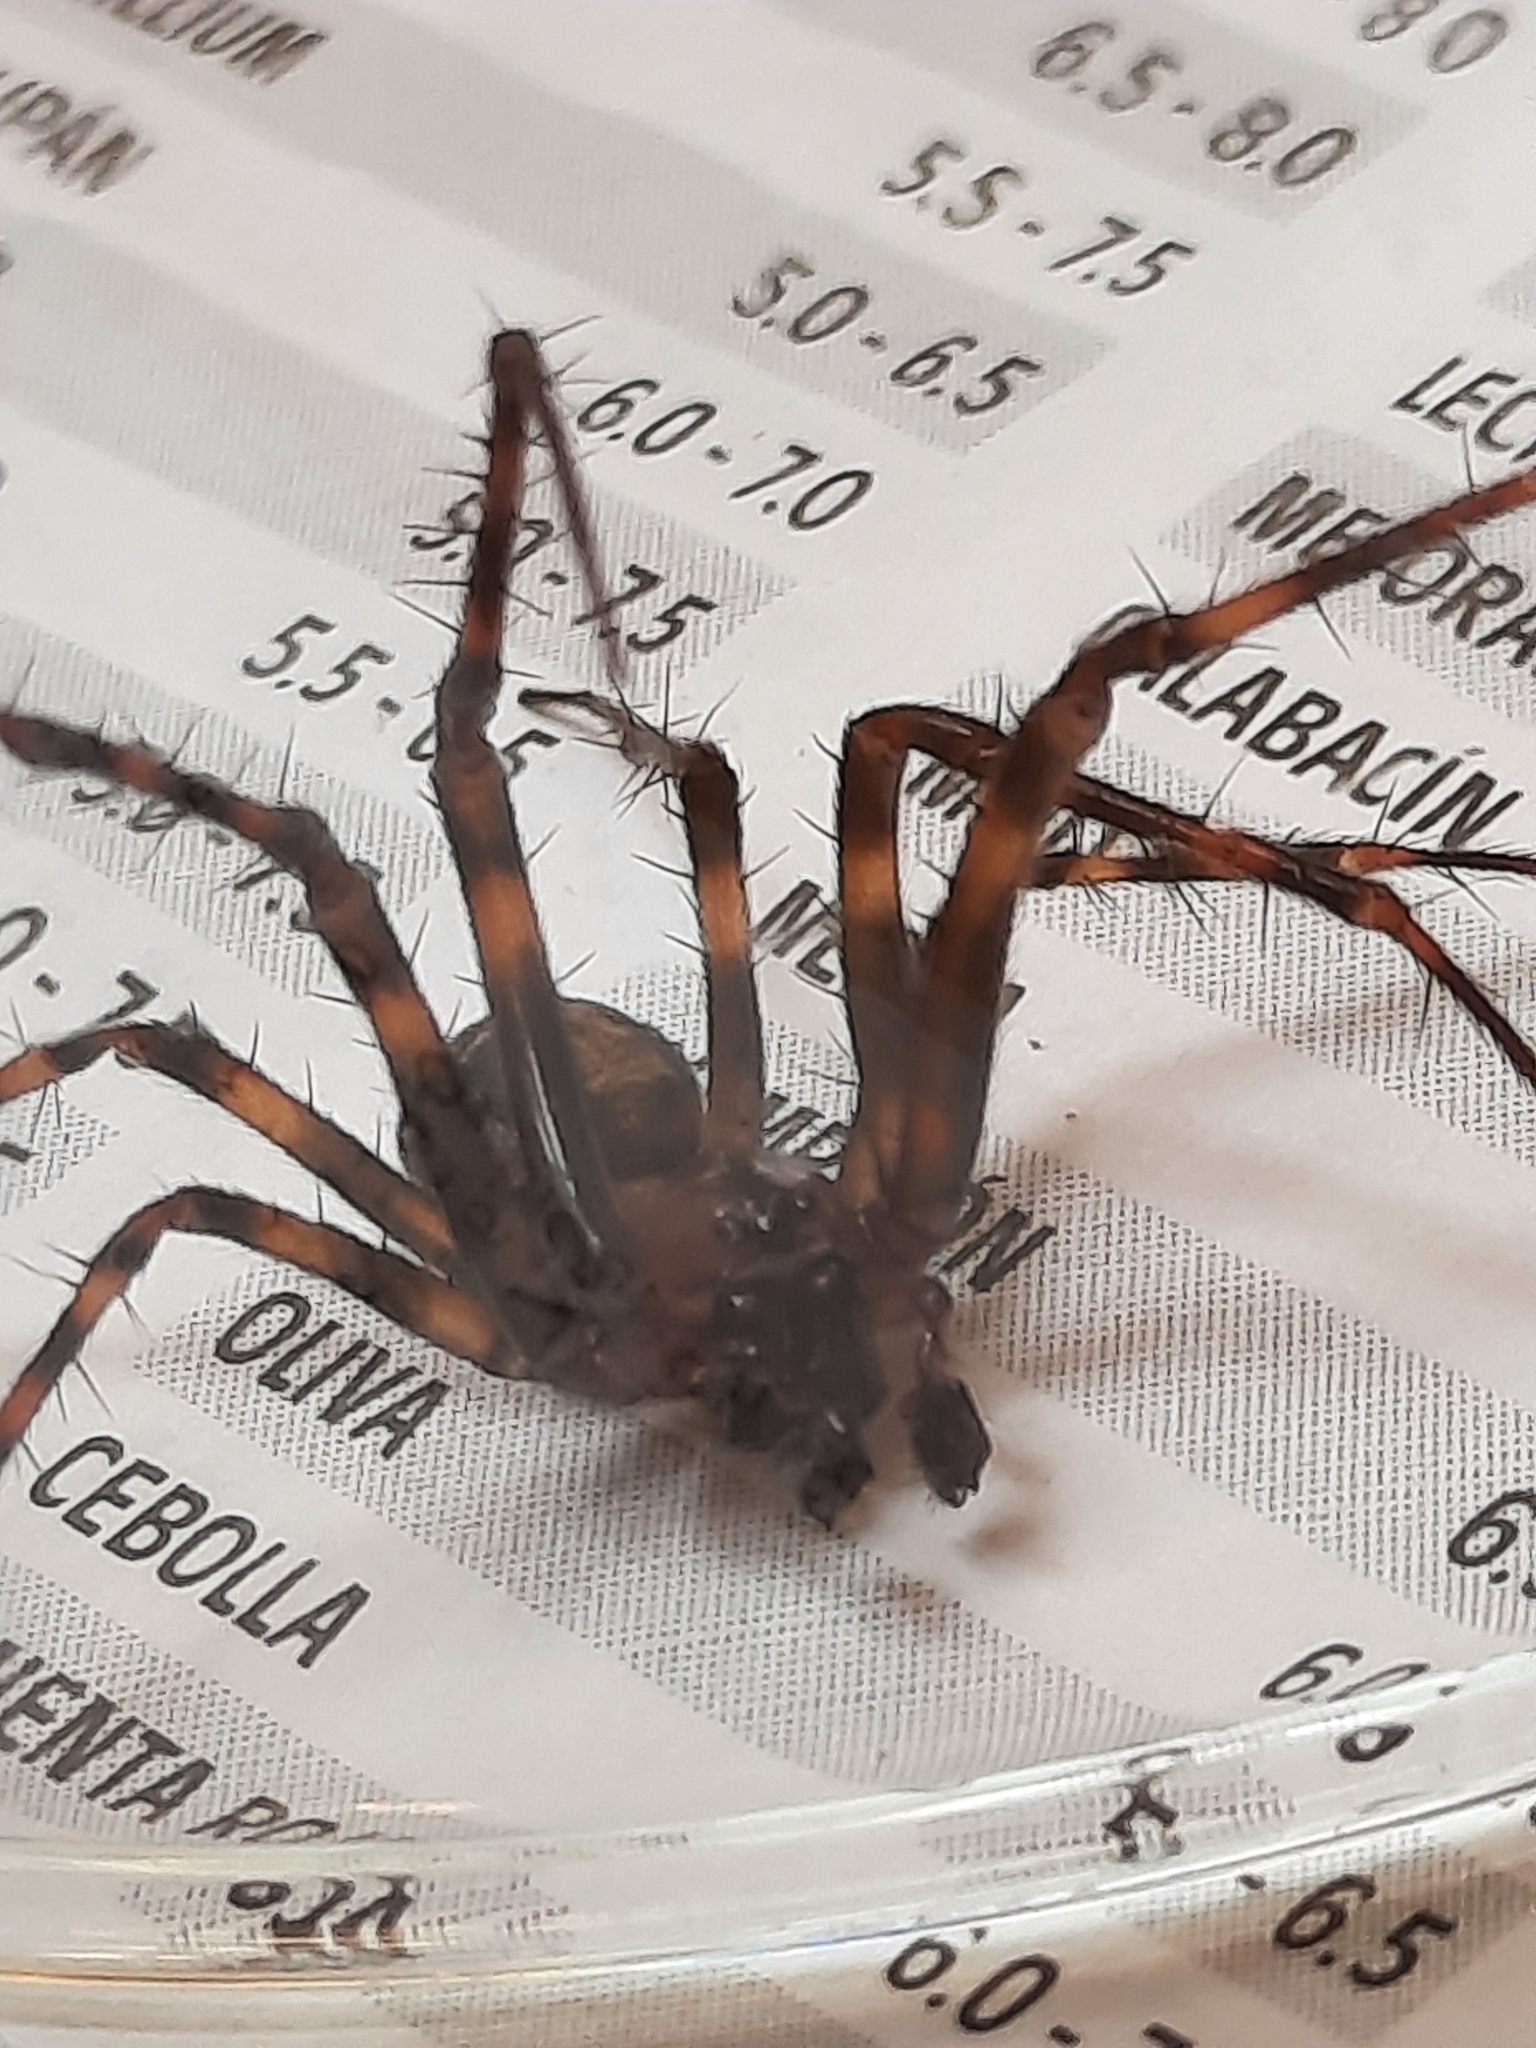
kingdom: Animalia
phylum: Arthropoda
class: Arachnida
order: Araneae
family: Tetragnathidae
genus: Meta
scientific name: Meta ovalis
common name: Eastern cave long-jawed spider
